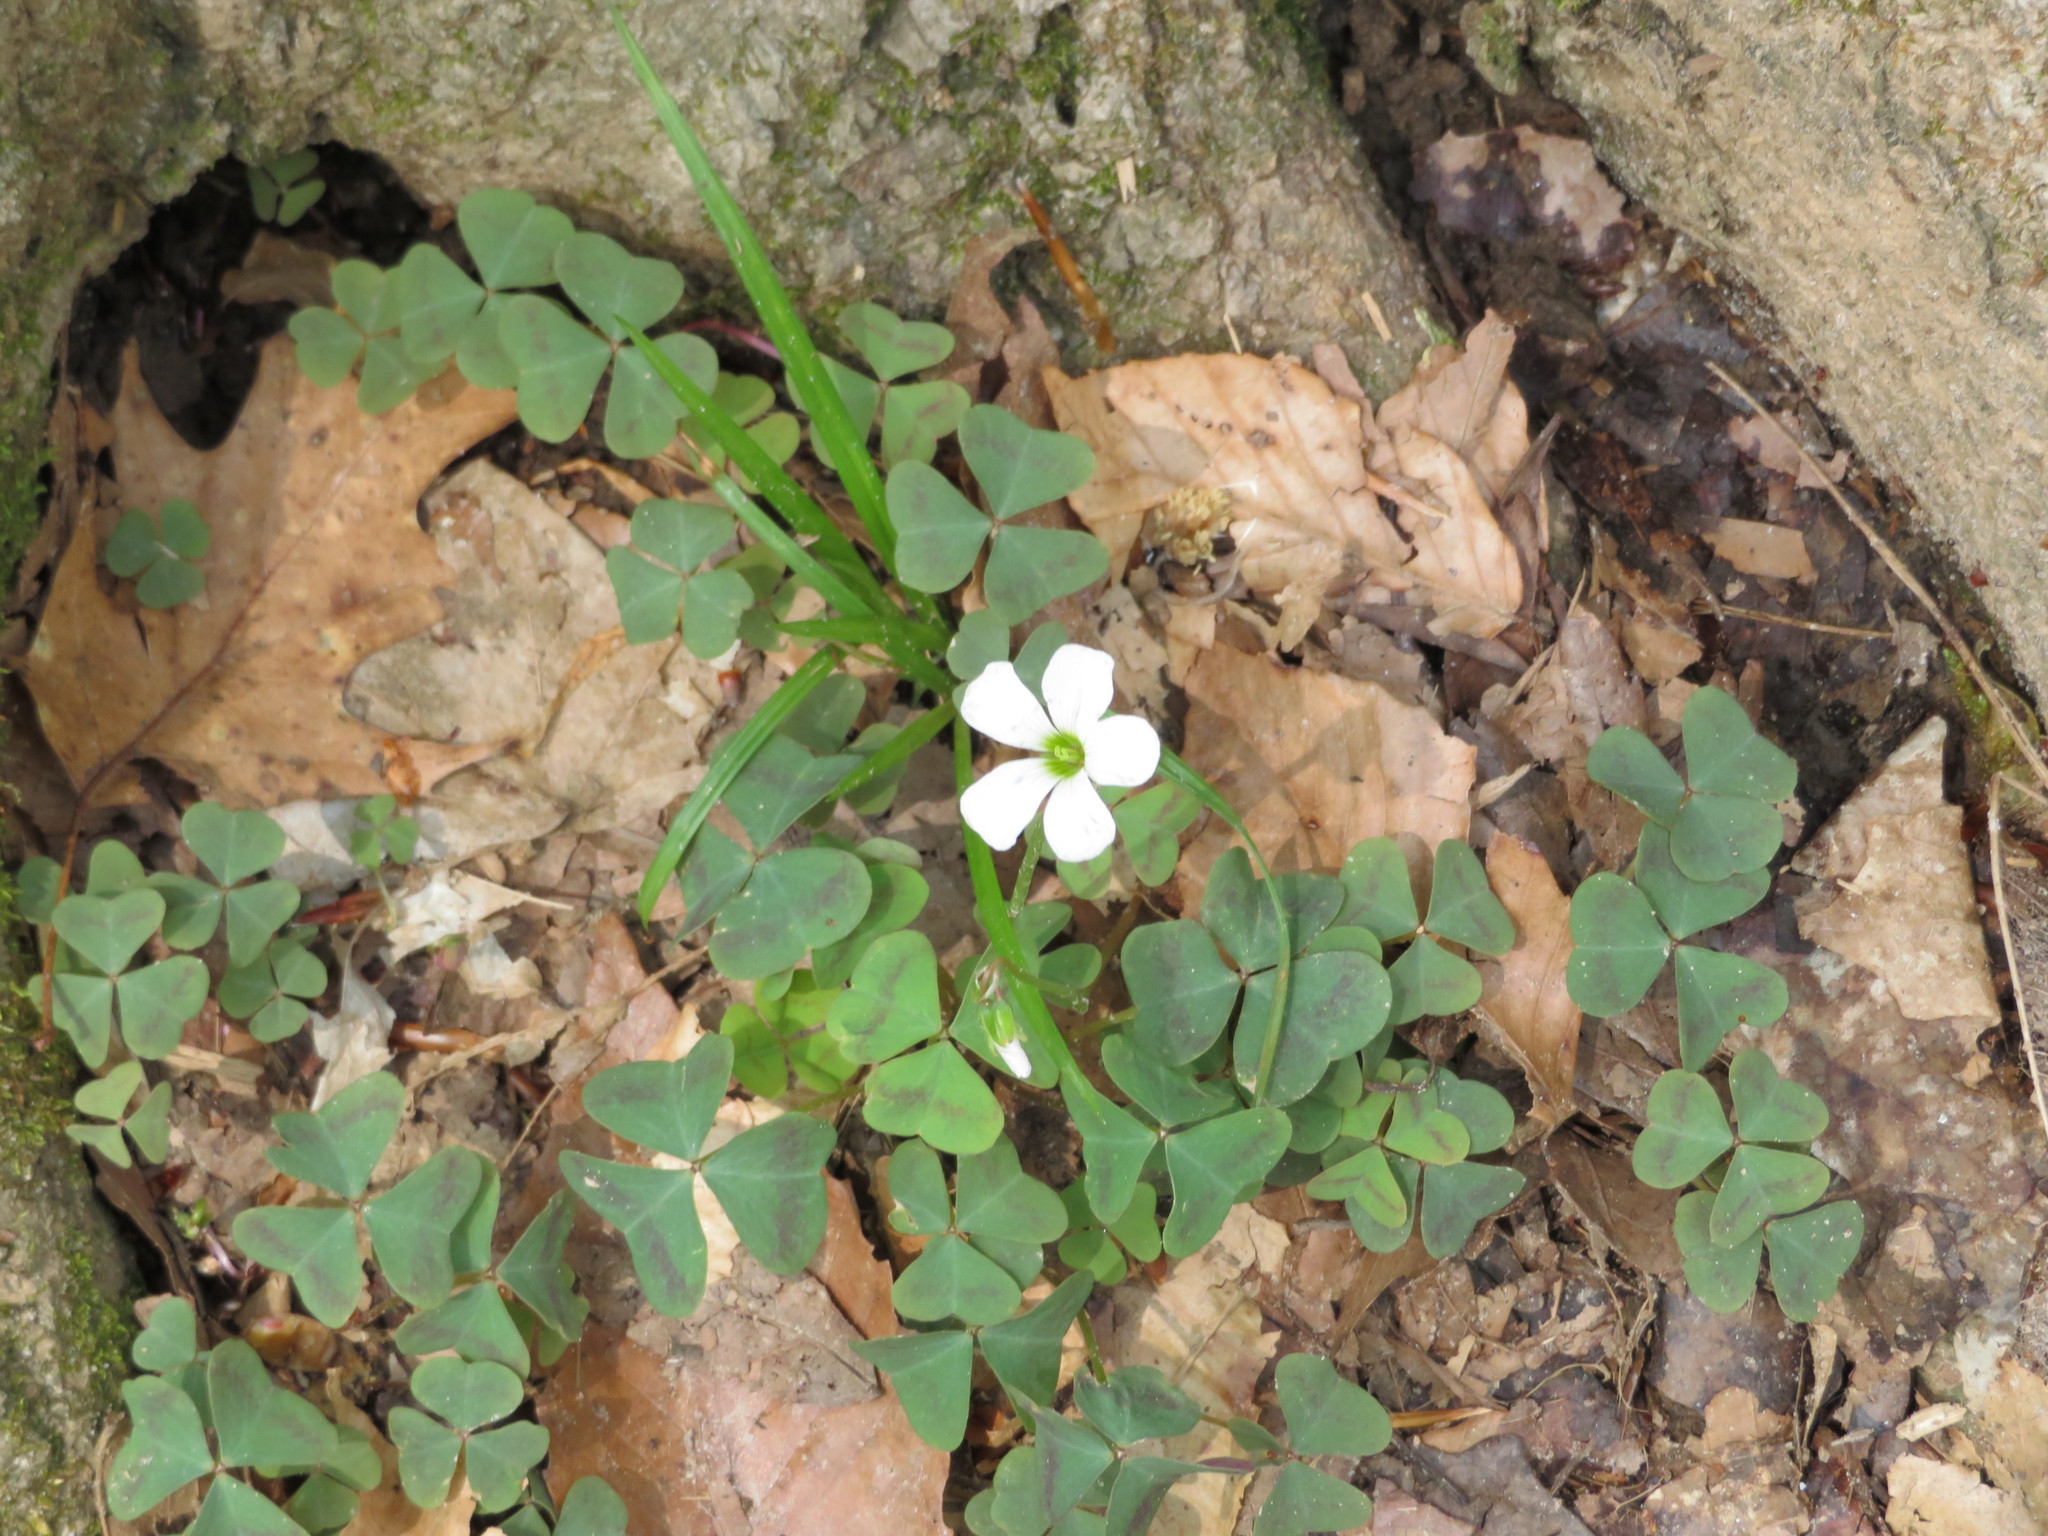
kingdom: Plantae
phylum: Tracheophyta
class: Magnoliopsida
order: Oxalidales
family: Oxalidaceae
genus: Oxalis
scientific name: Oxalis violacea
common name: Violet wood-sorrel
